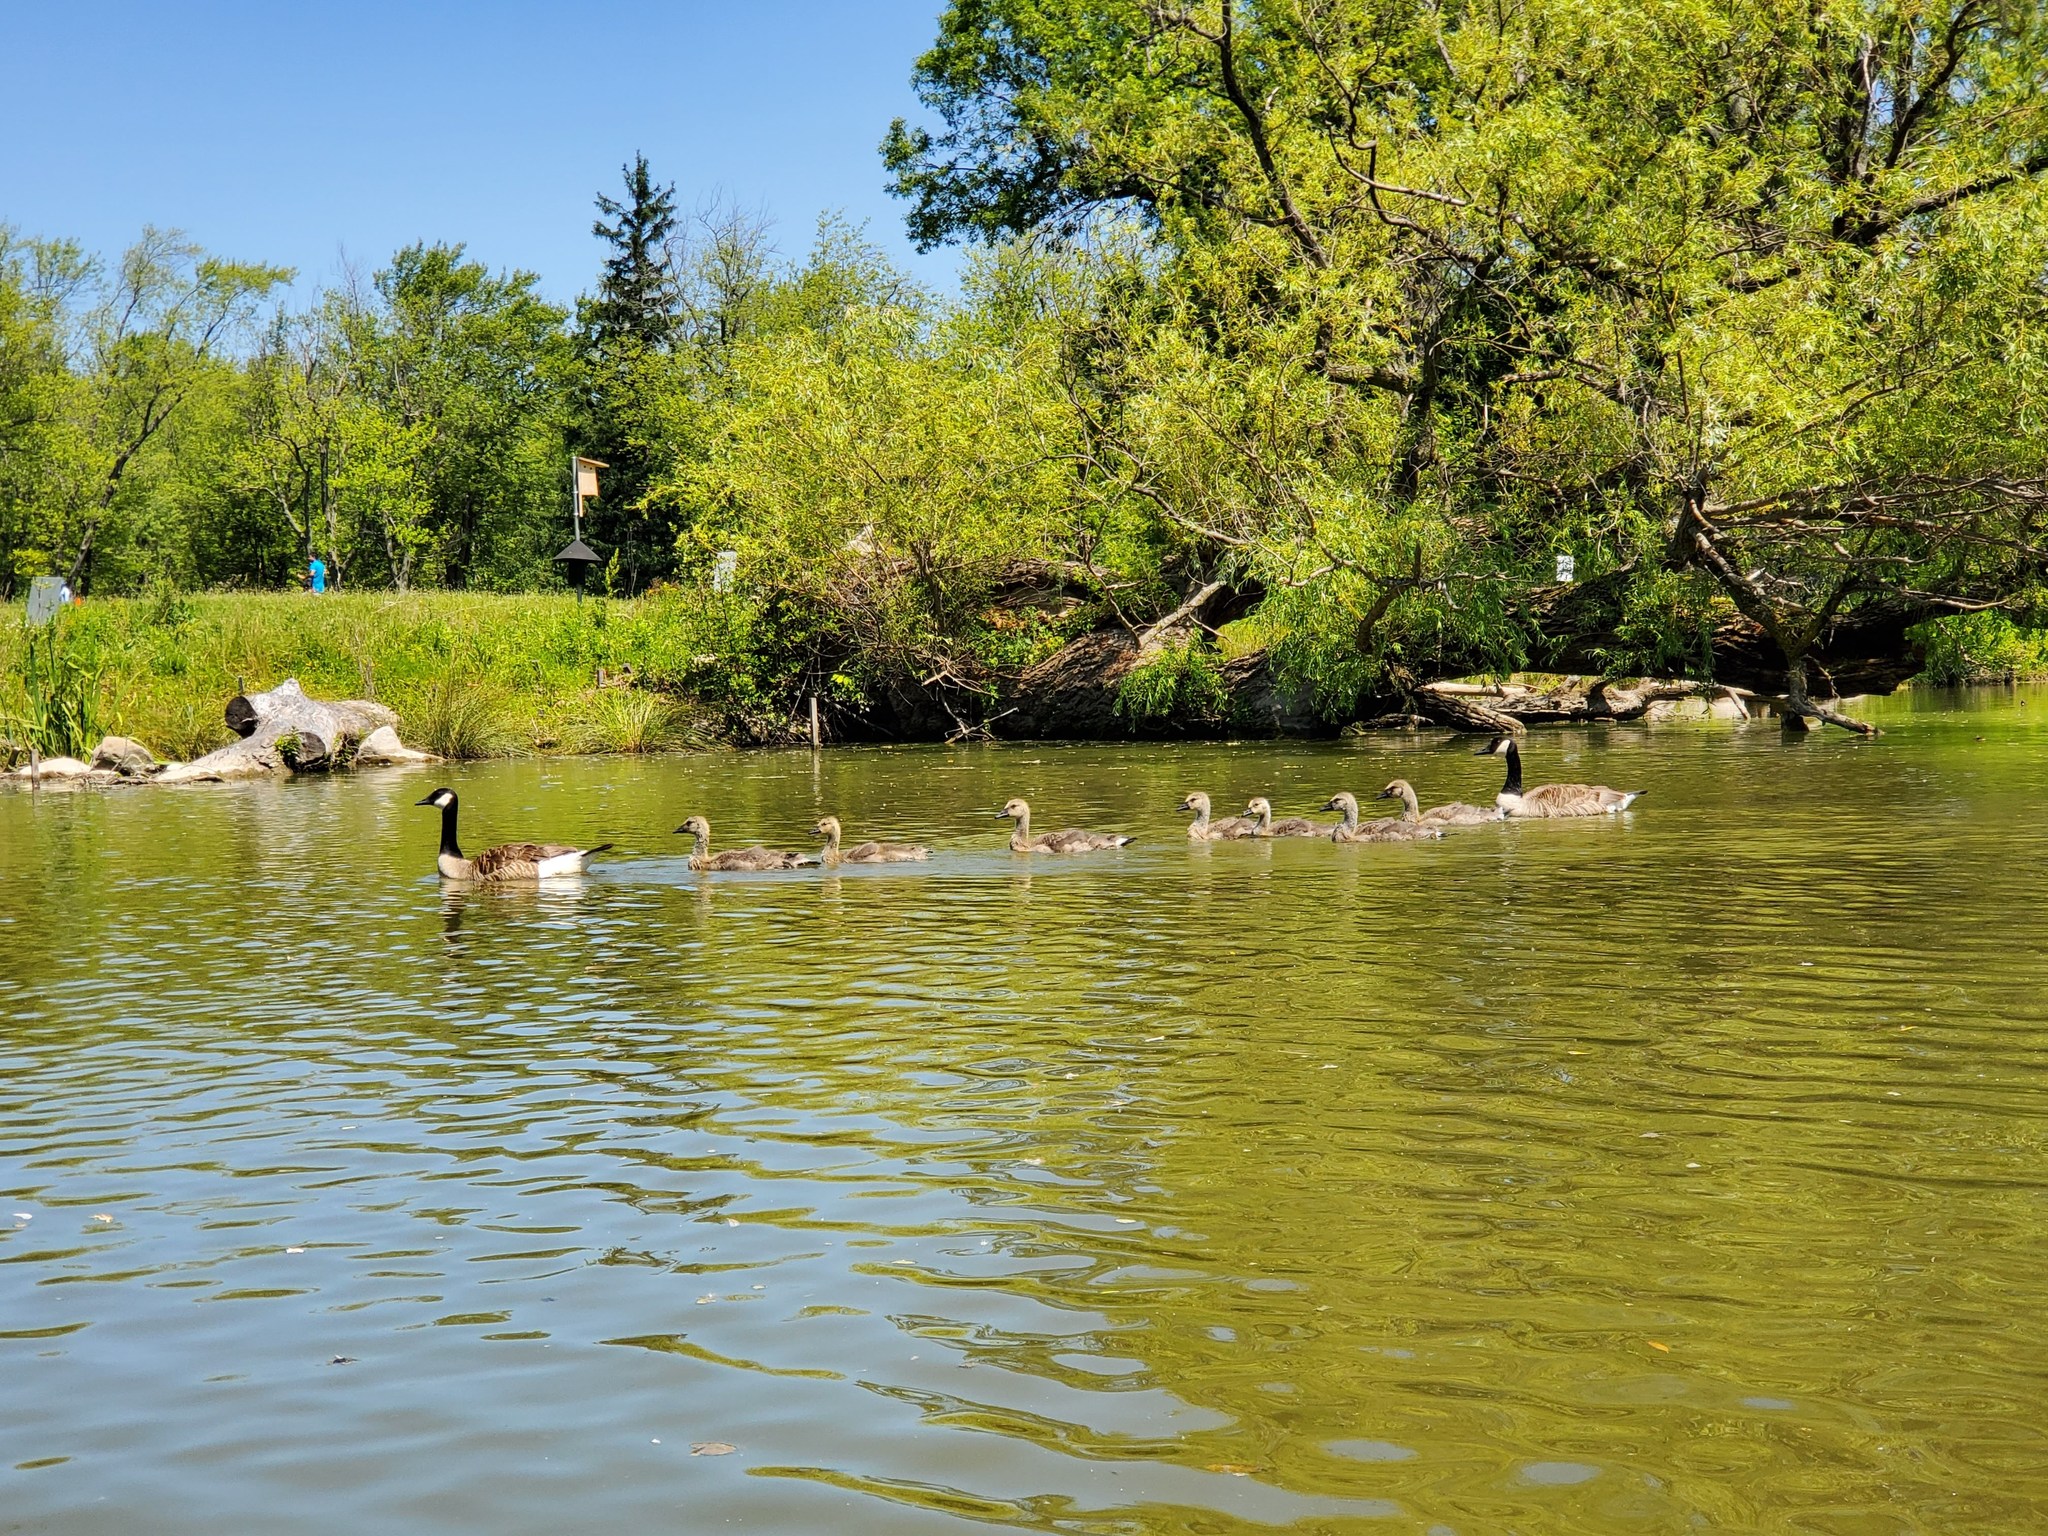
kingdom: Animalia
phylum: Chordata
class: Aves
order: Anseriformes
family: Anatidae
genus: Branta
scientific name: Branta canadensis
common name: Canada goose
